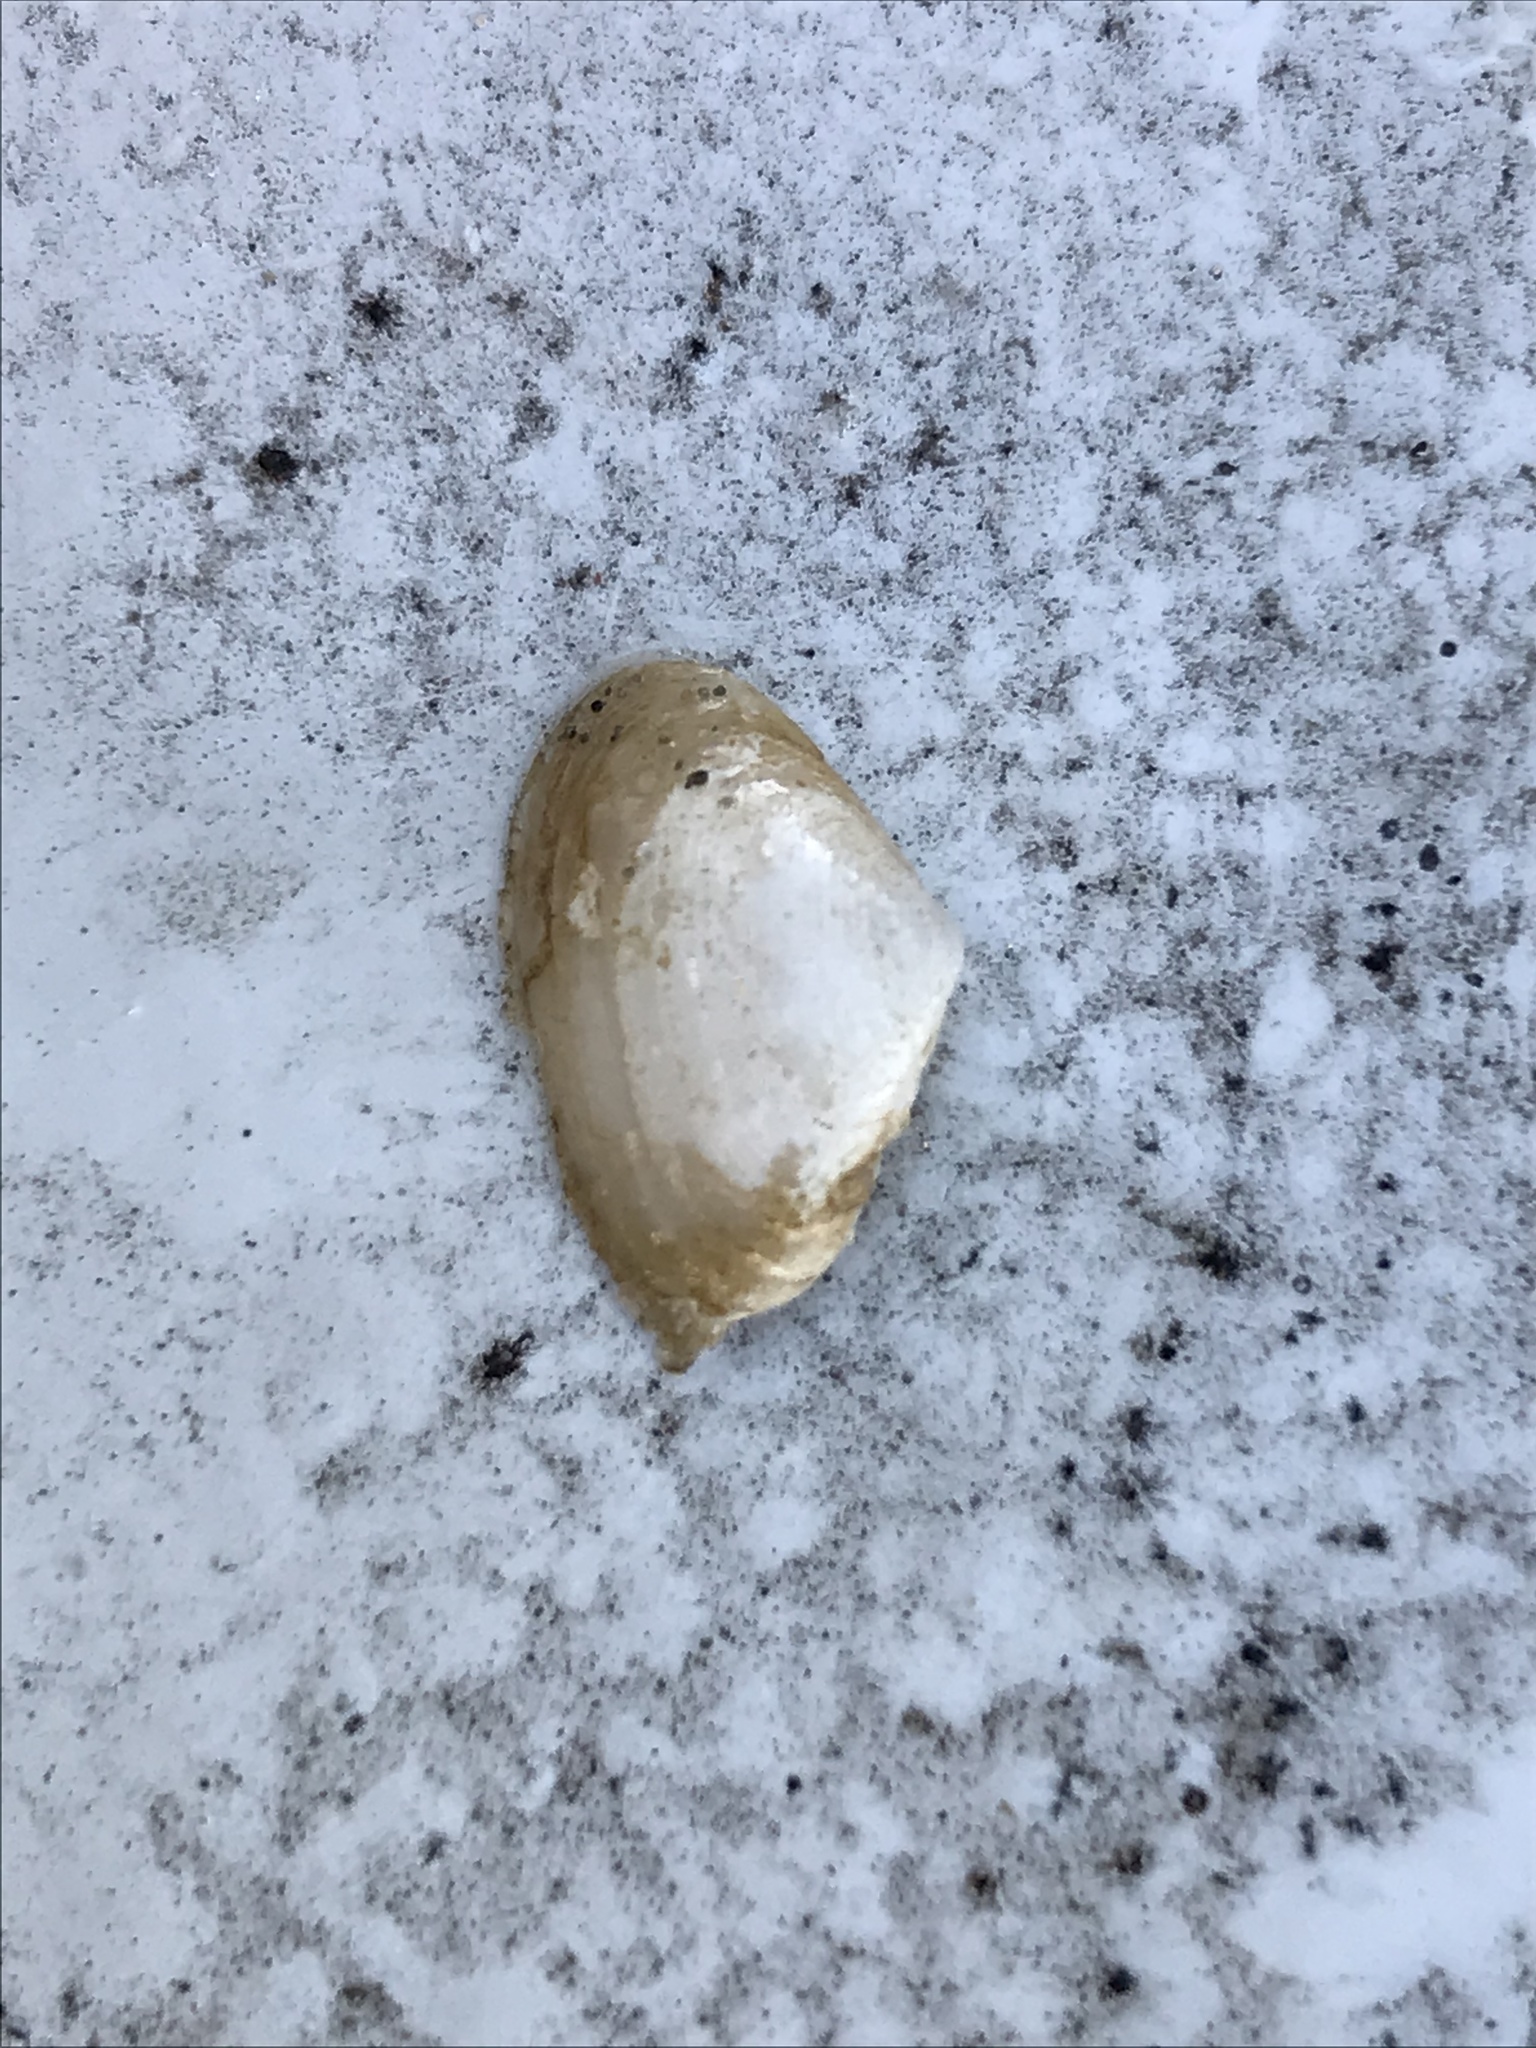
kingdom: Animalia
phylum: Mollusca
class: Bivalvia
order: Myida
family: Corbulidae
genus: Potamocorbula
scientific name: Potamocorbula amurensis
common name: Brackish-water corbula
